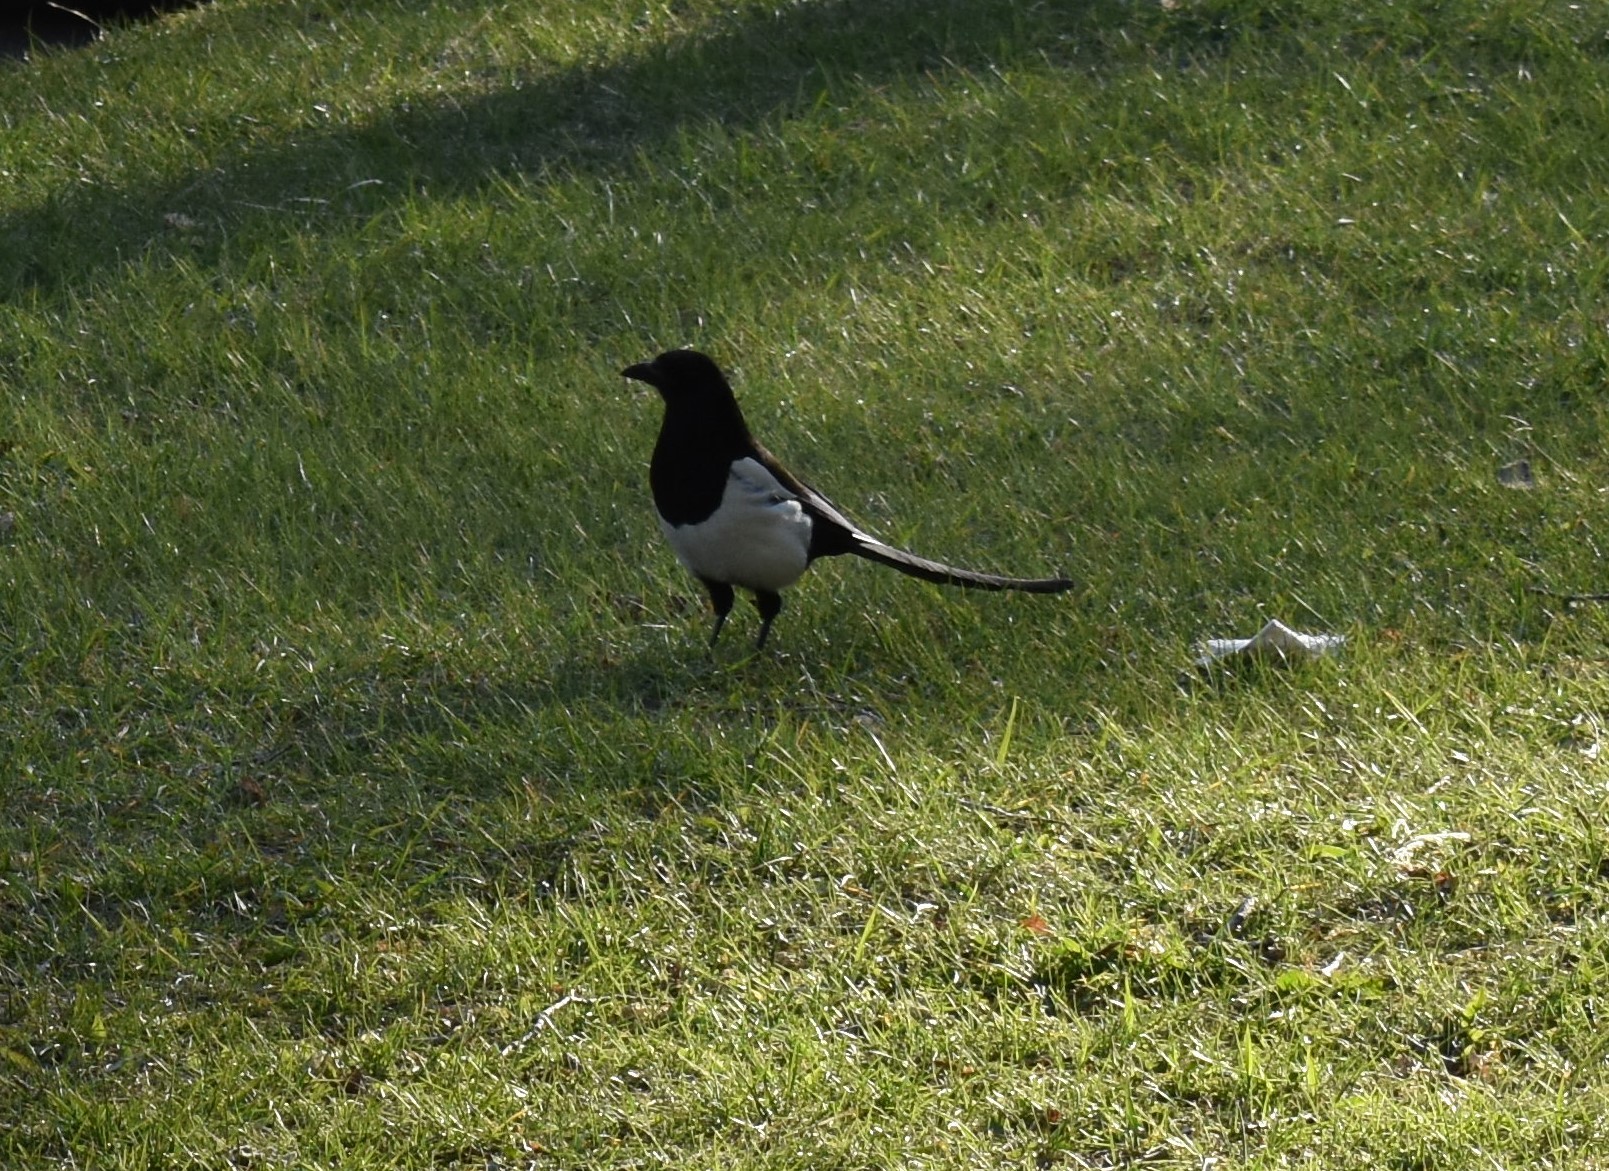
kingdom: Animalia
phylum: Chordata
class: Aves
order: Passeriformes
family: Corvidae
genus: Pica
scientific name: Pica hudsonia
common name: Black-billed magpie
